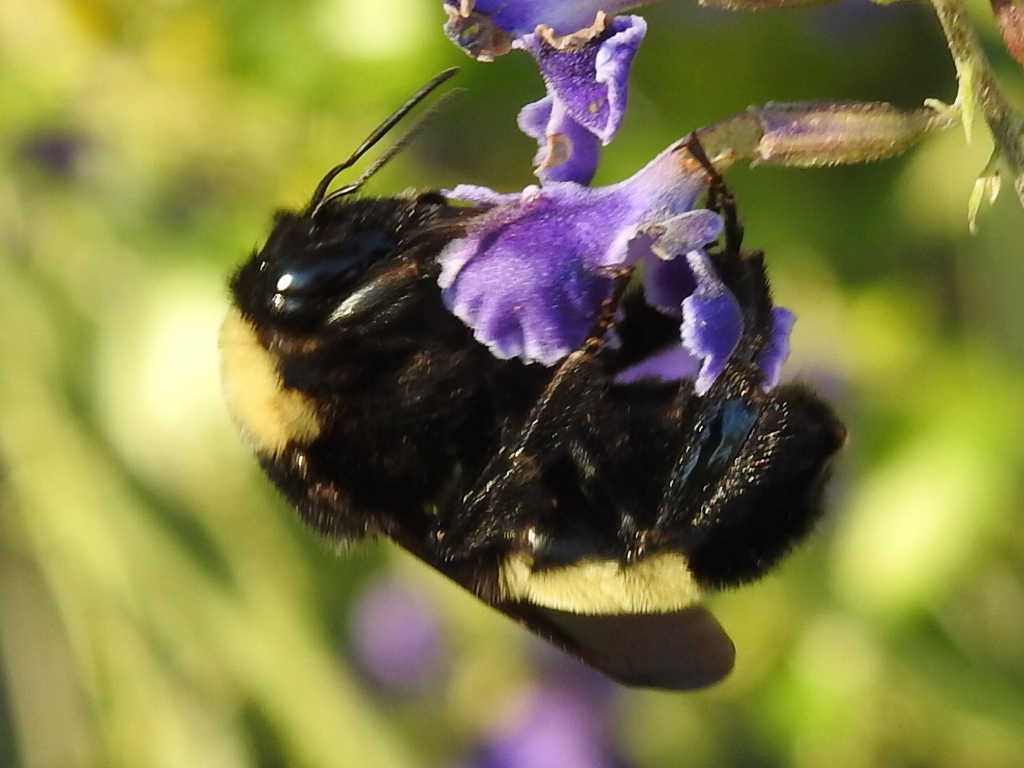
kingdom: Animalia
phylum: Arthropoda
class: Insecta
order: Hymenoptera
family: Apidae
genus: Bombus
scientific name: Bombus pensylvanicus
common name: Bumble bee
